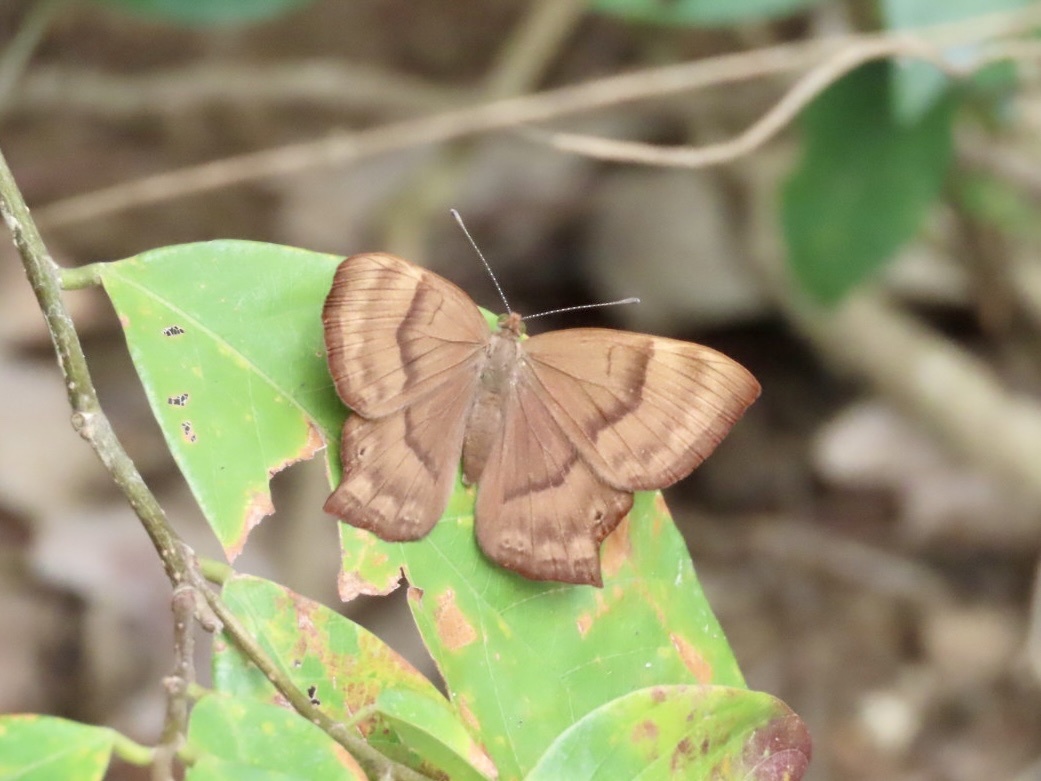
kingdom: Animalia
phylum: Arthropoda
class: Insecta
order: Lepidoptera
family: Lycaenidae
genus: Abisara
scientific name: Abisara echeria
